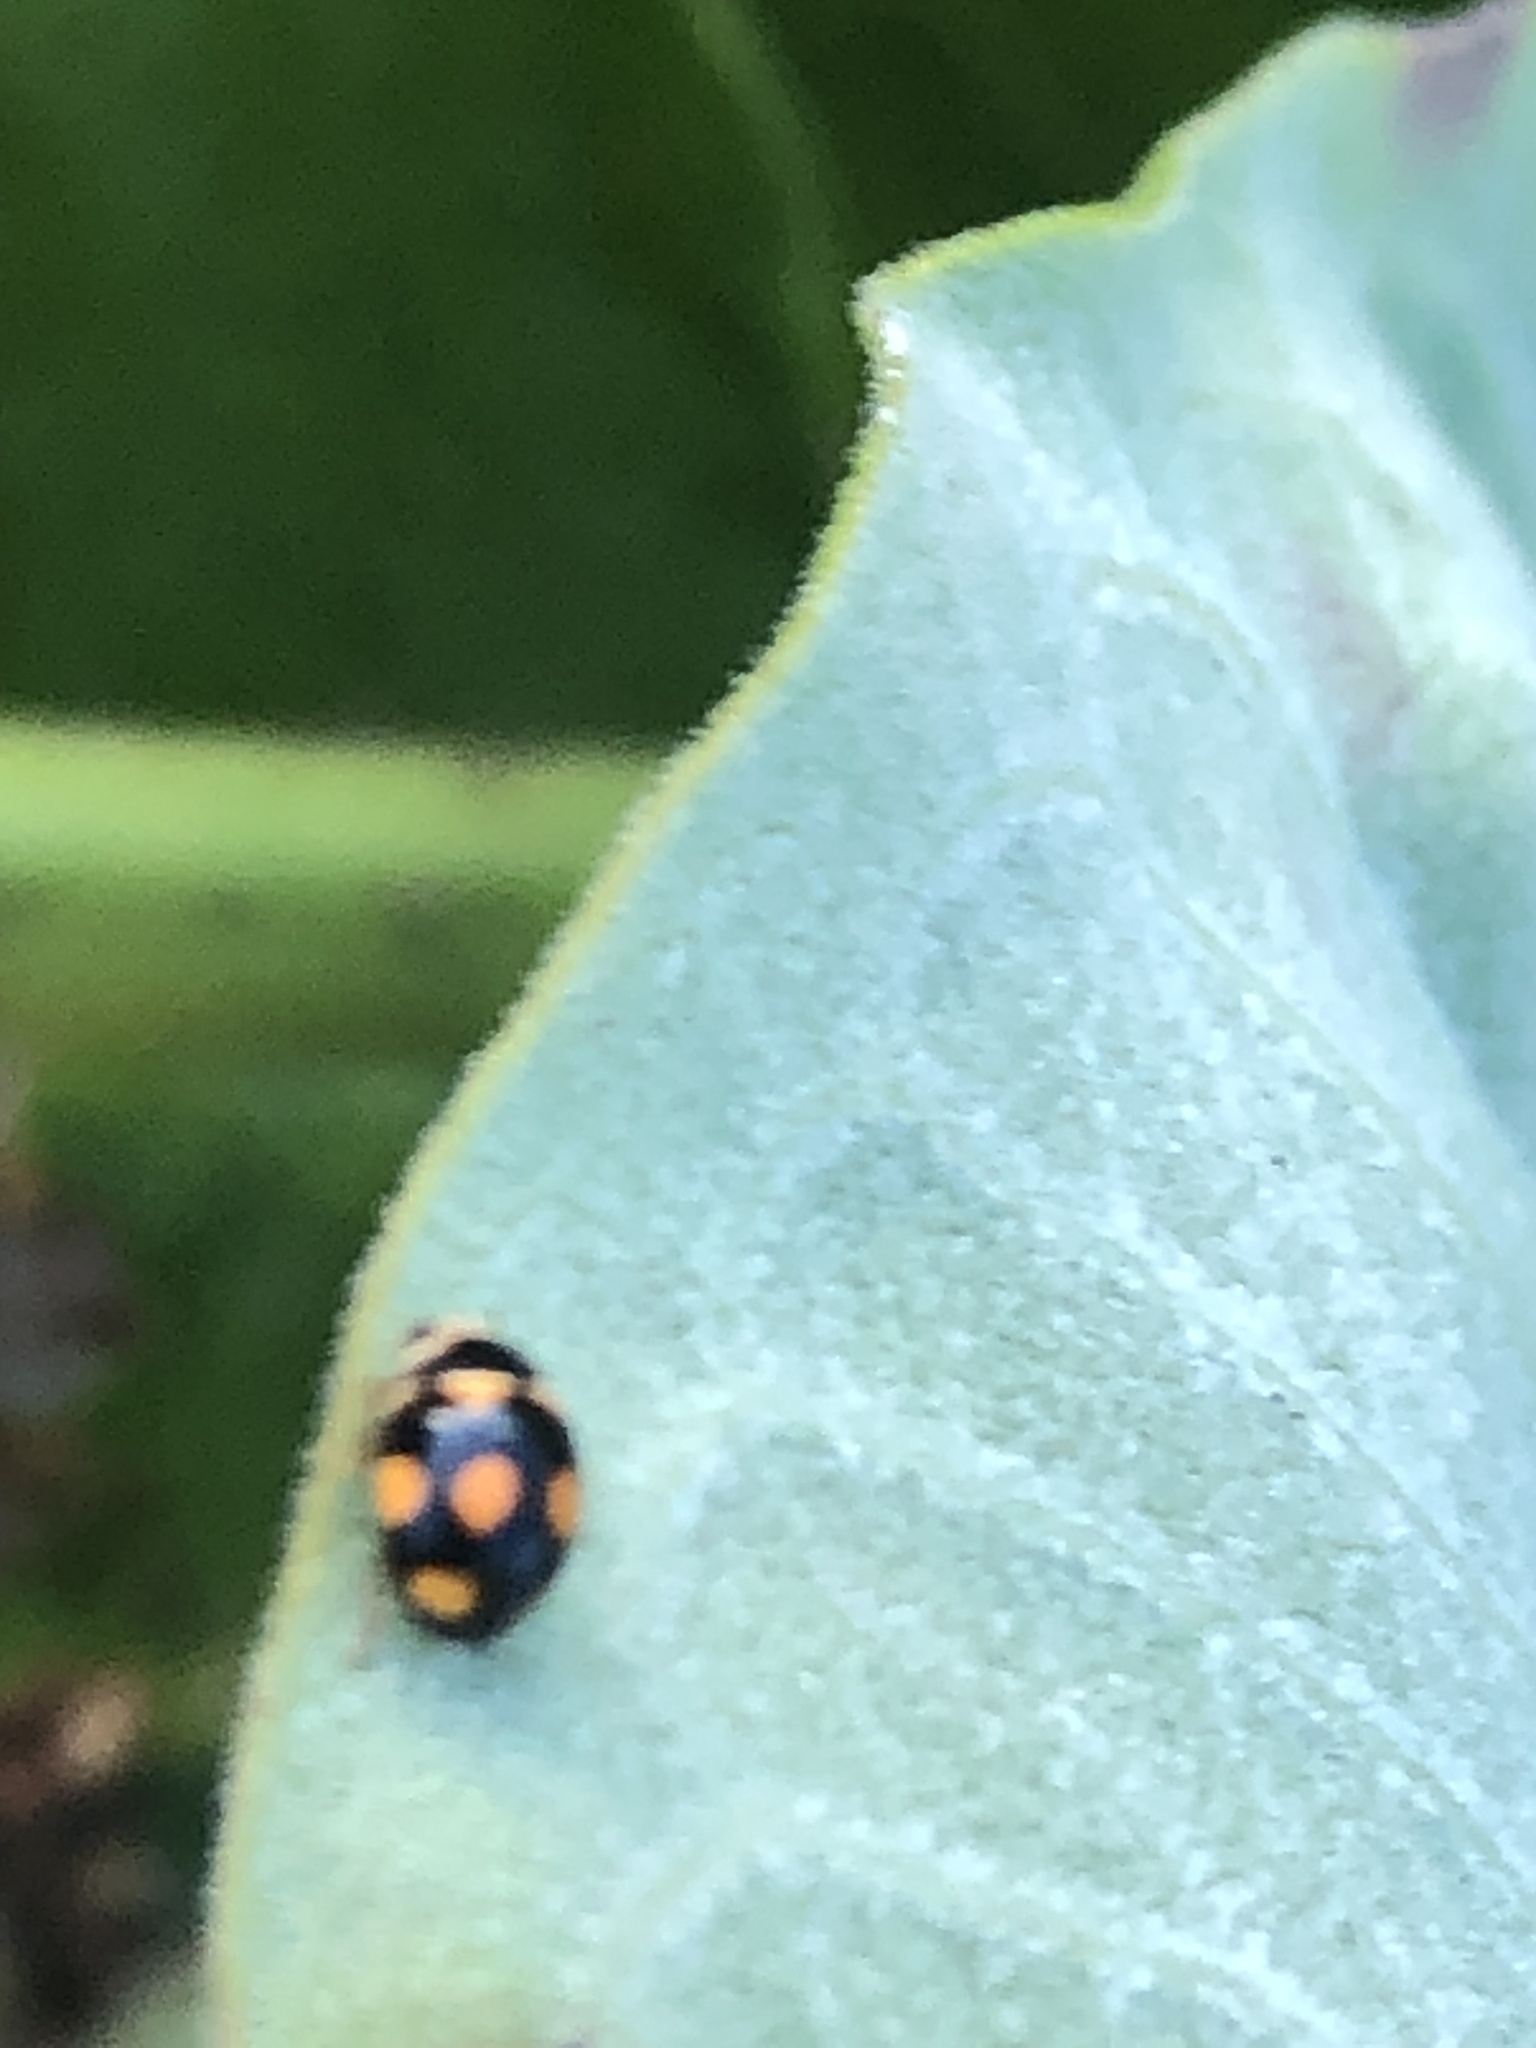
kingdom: Animalia
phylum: Arthropoda
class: Insecta
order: Coleoptera
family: Coccinellidae
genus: Brachiacantha
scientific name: Brachiacantha ursina
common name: Ursine spurleg lady beetle
